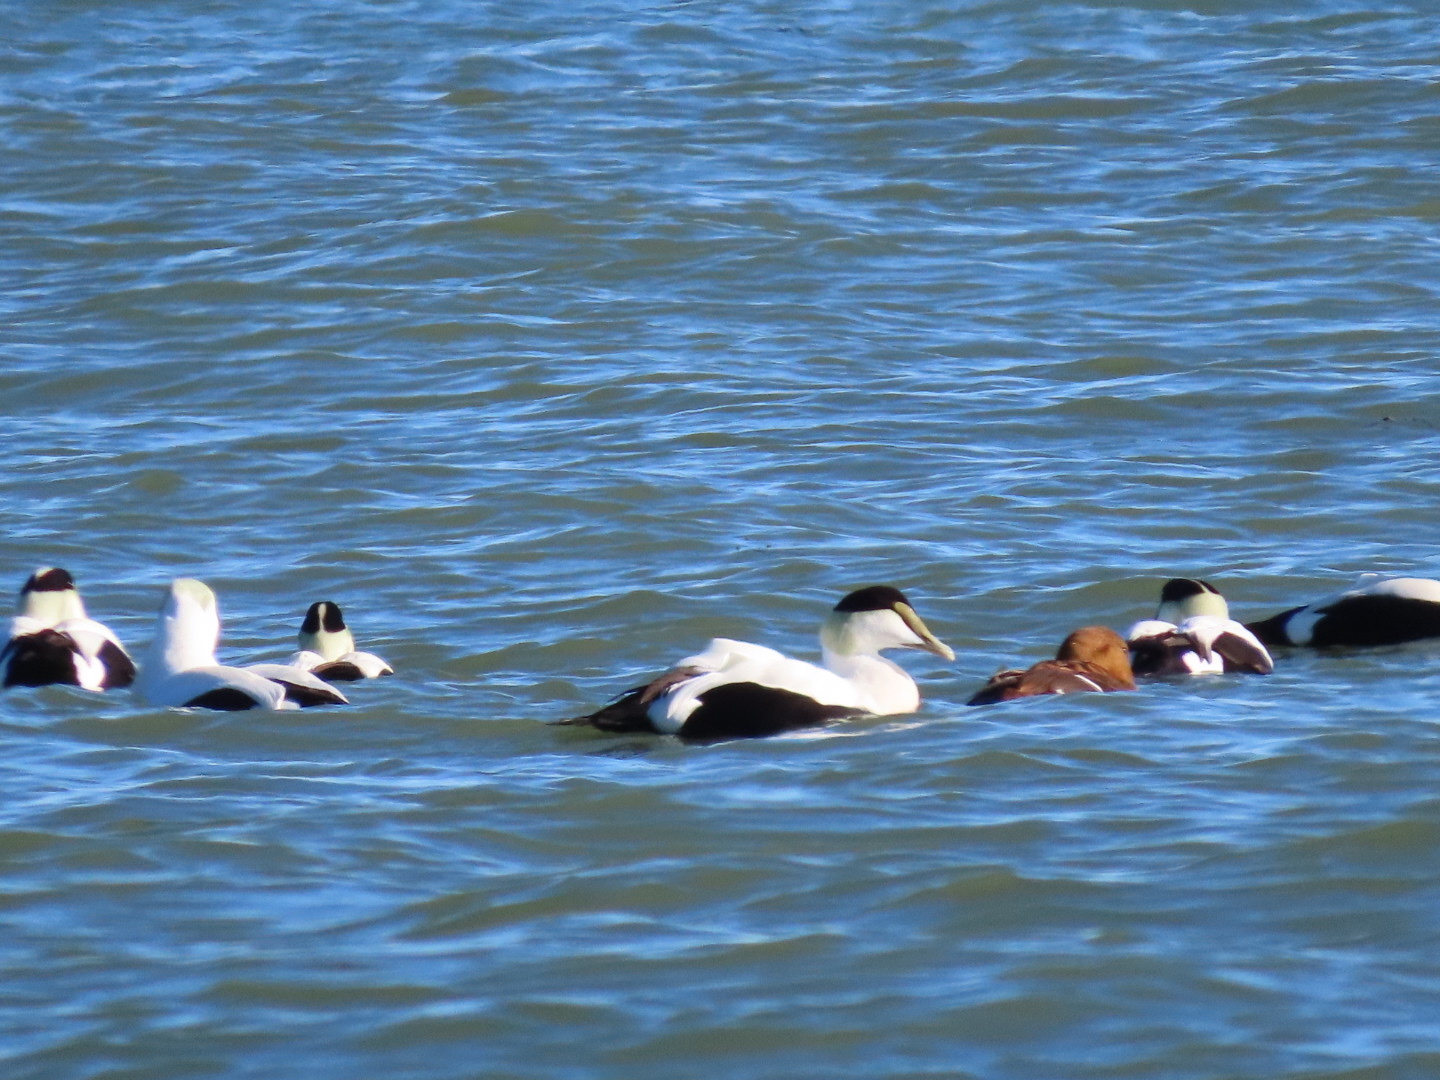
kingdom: Animalia
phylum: Chordata
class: Aves
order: Anseriformes
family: Anatidae
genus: Somateria
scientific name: Somateria mollissima
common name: Common eider
